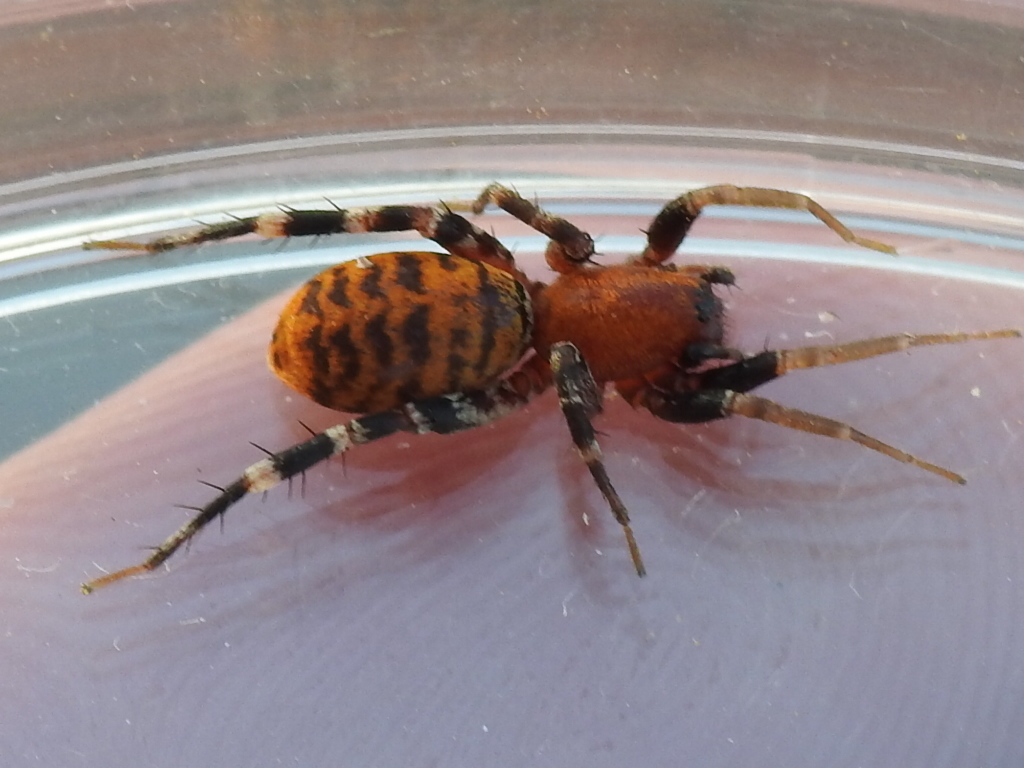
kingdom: Animalia
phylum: Arthropoda
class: Arachnida
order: Araneae
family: Corinnidae
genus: Castianeira
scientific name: Castianeira amoena
